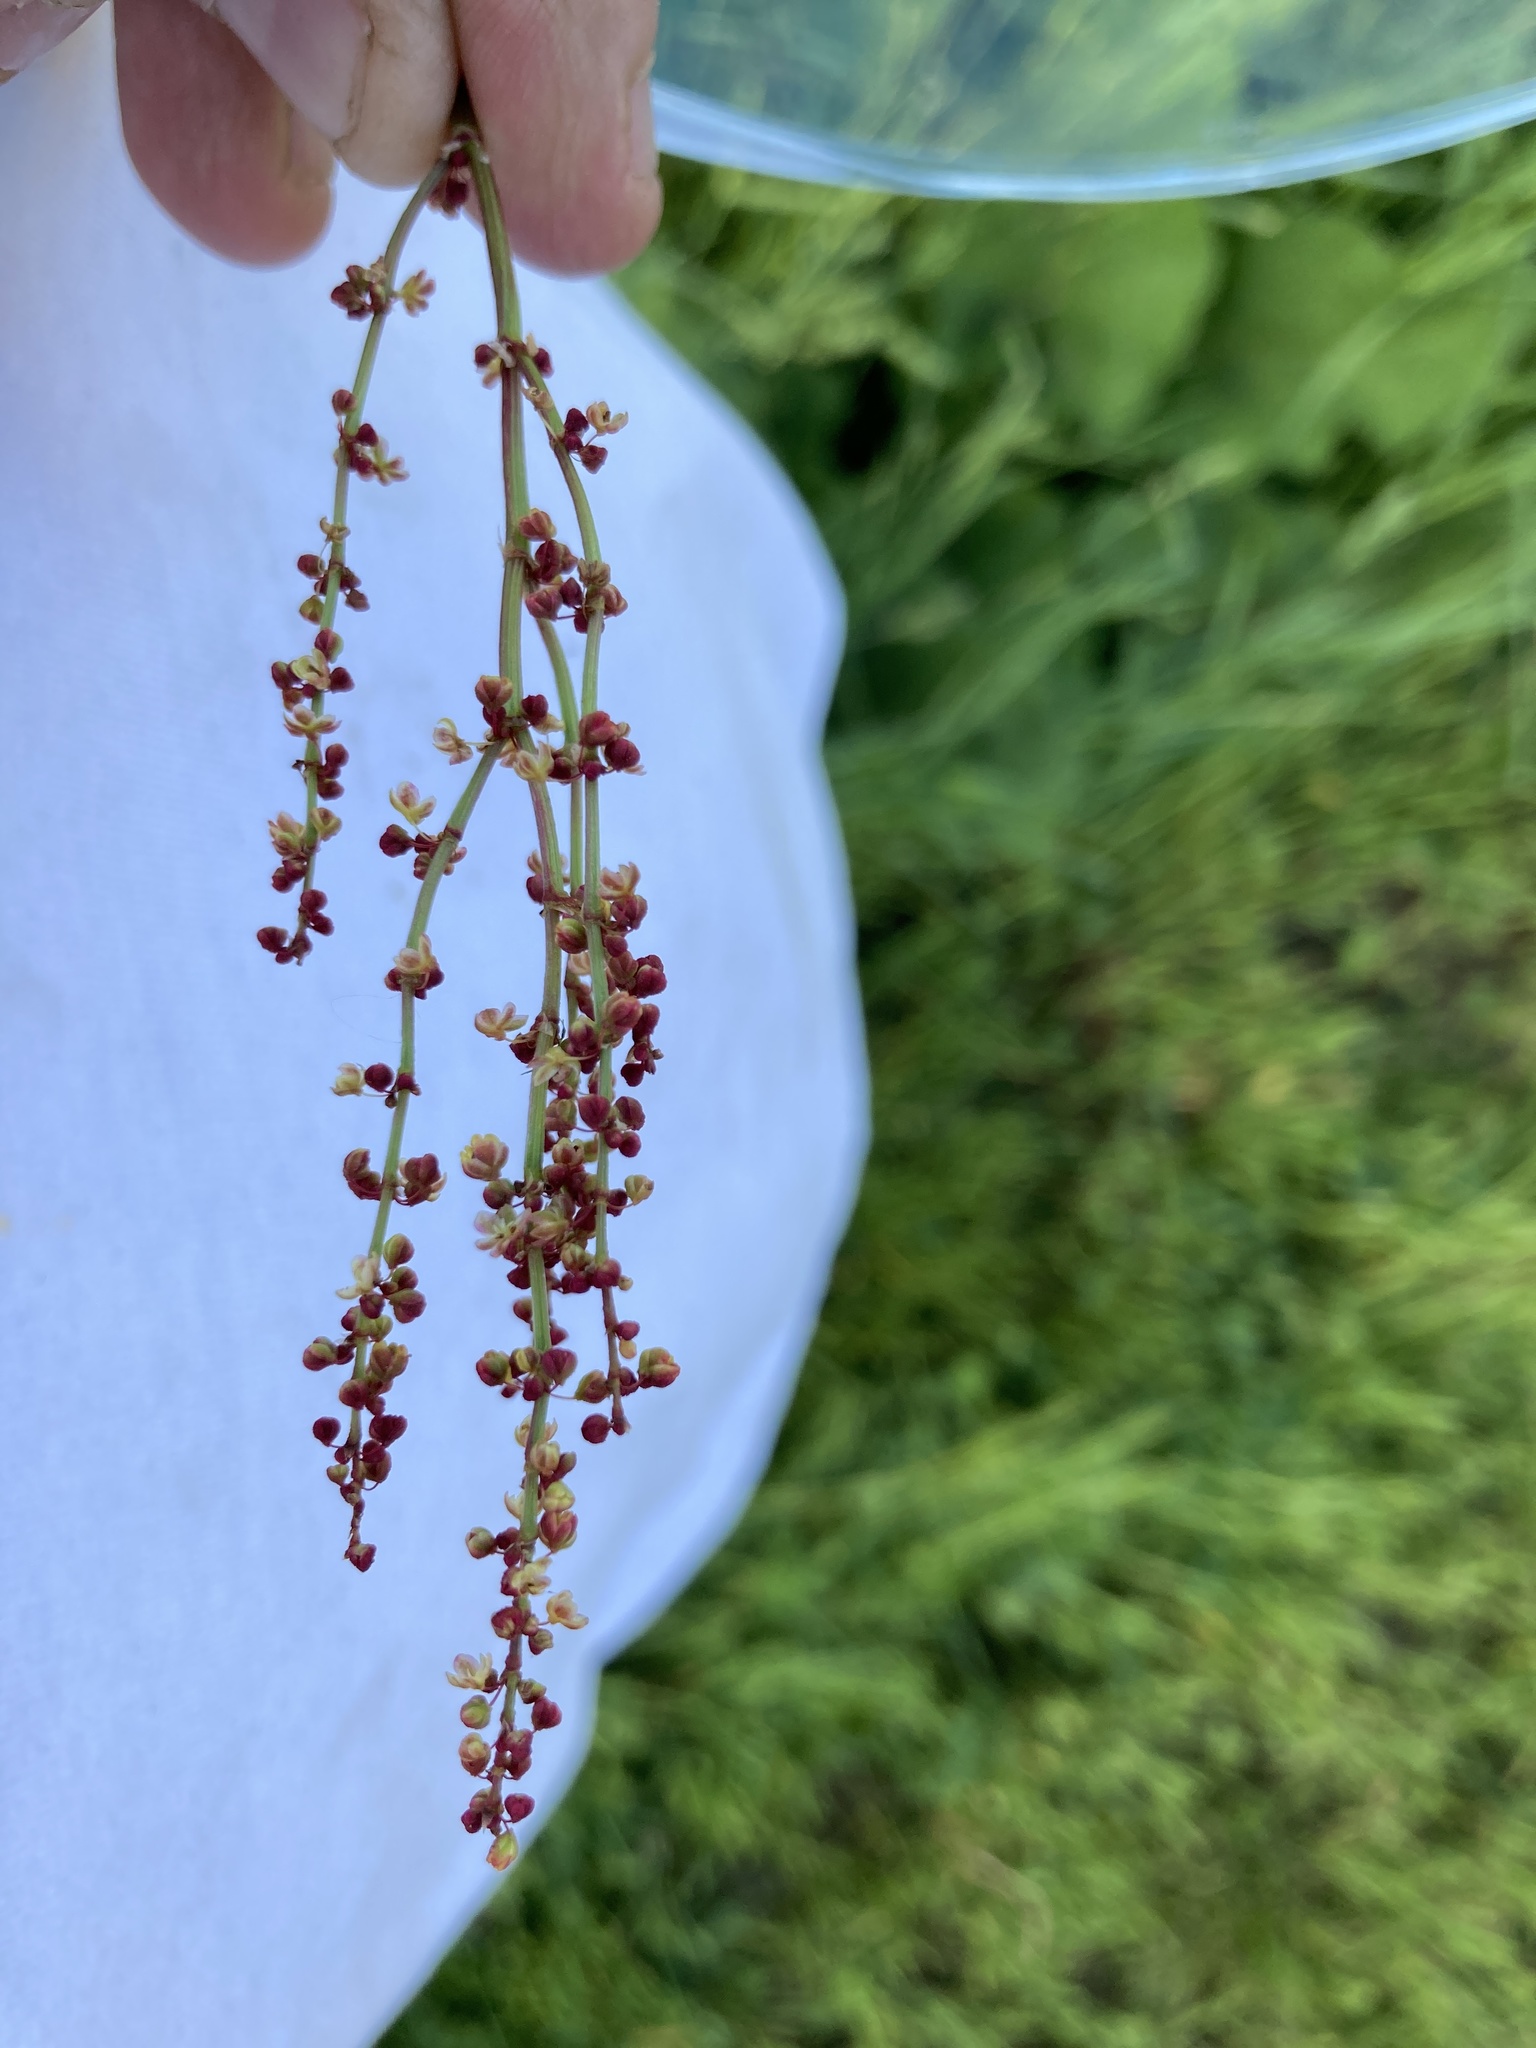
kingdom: Plantae
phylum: Tracheophyta
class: Magnoliopsida
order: Caryophyllales
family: Polygonaceae
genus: Rumex
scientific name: Rumex acetosella
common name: Common sheep sorrel
